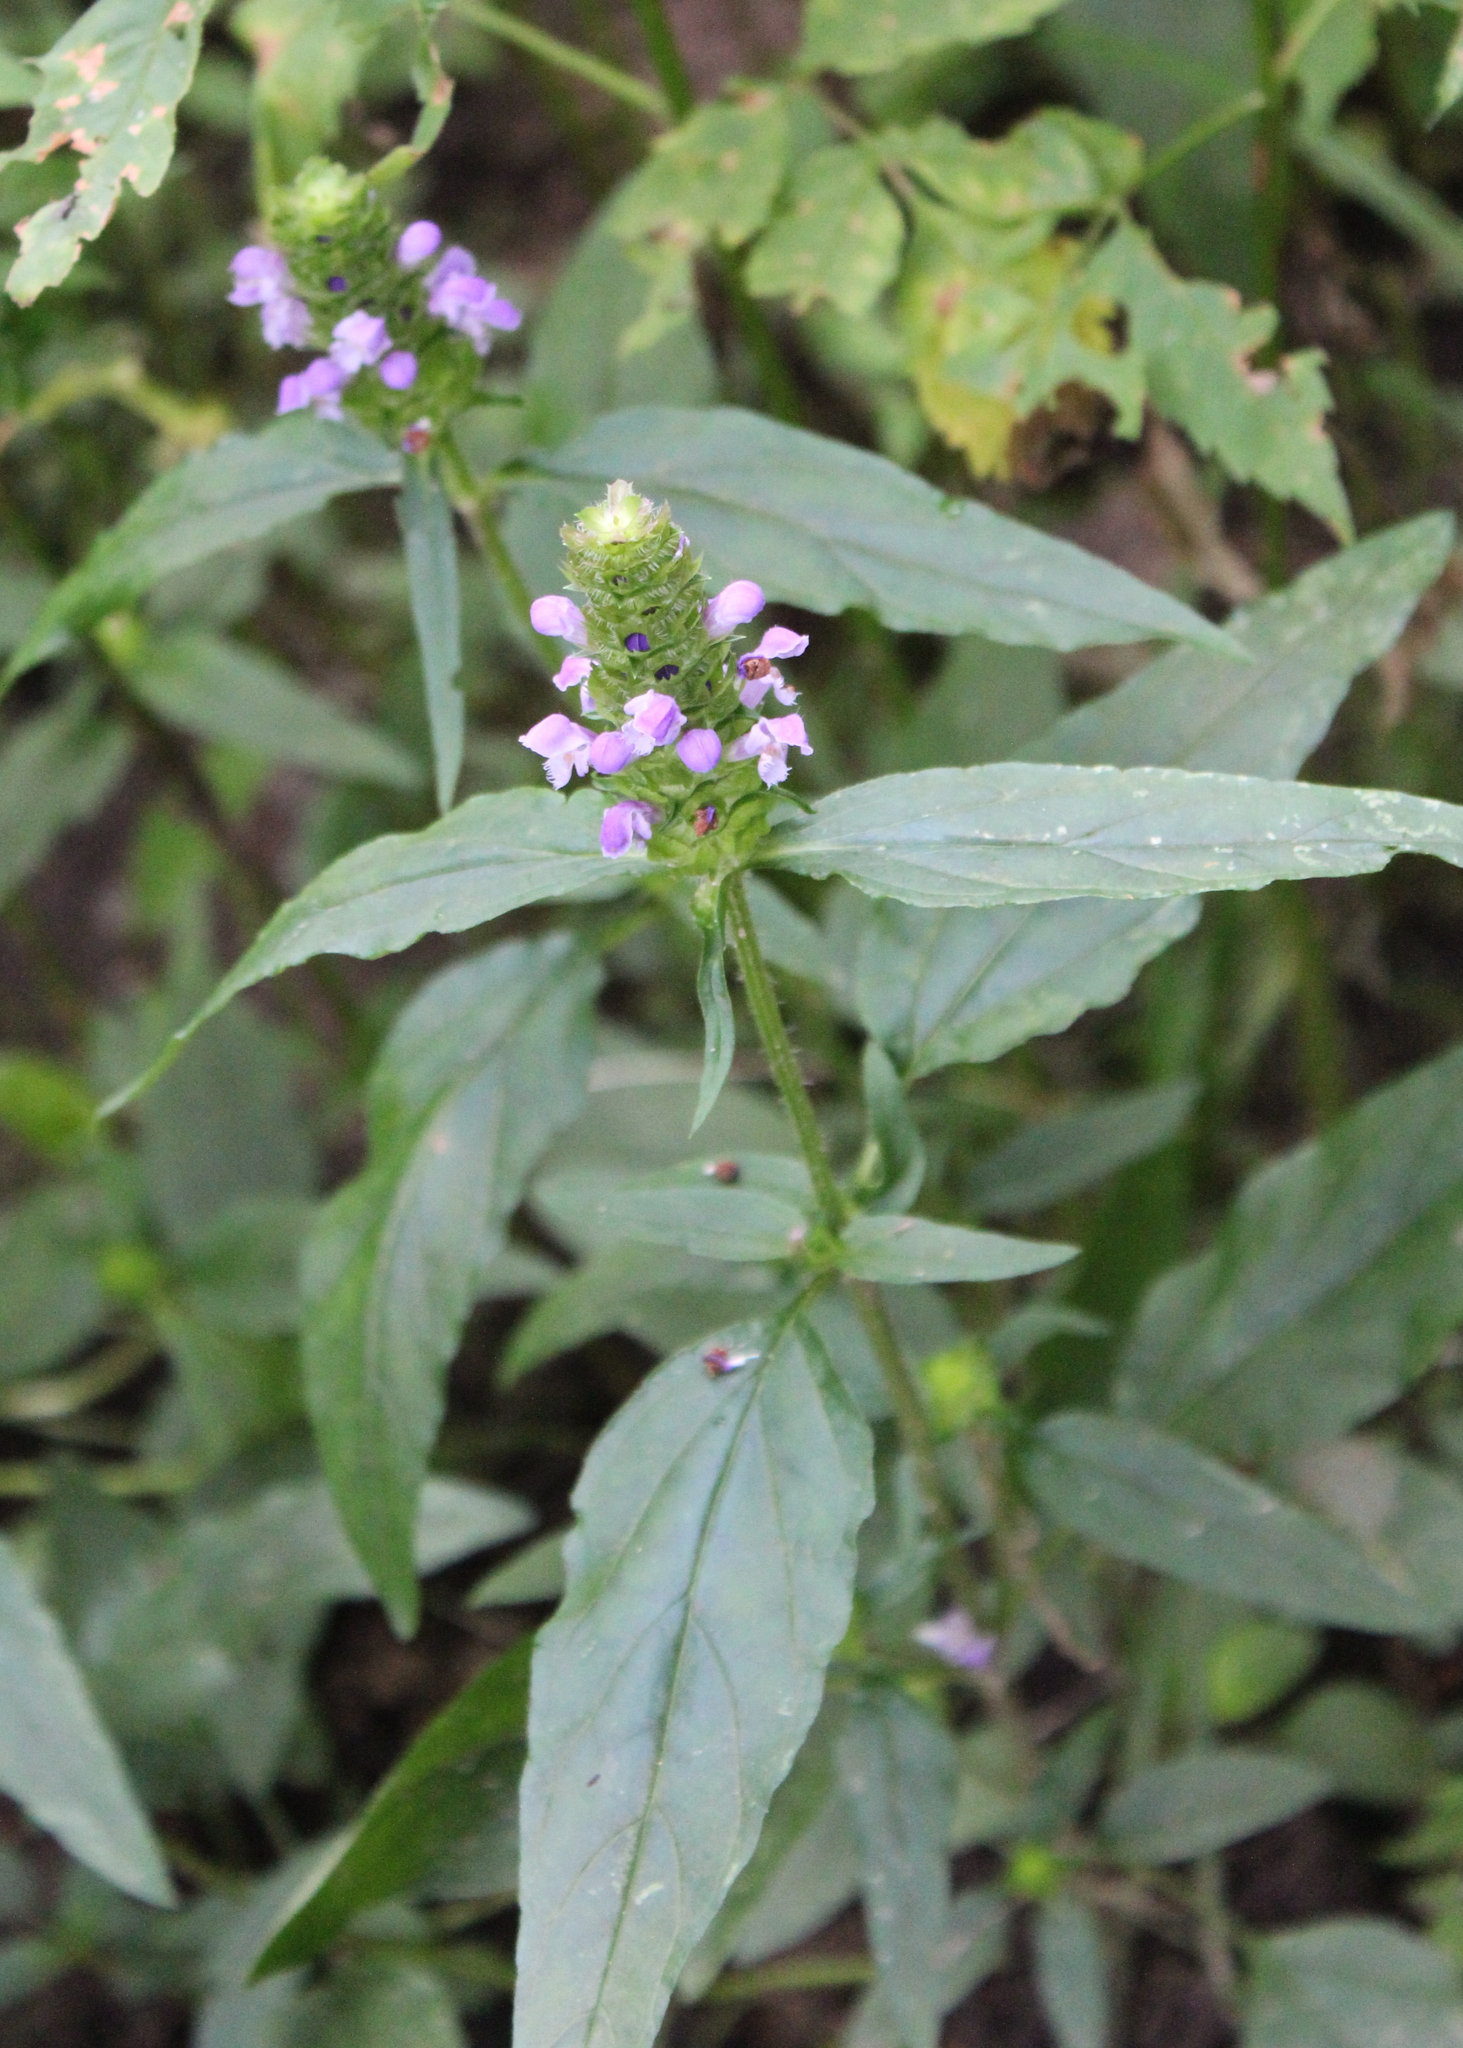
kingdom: Plantae
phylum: Tracheophyta
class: Magnoliopsida
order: Lamiales
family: Lamiaceae
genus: Prunella
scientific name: Prunella vulgaris
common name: Heal-all
